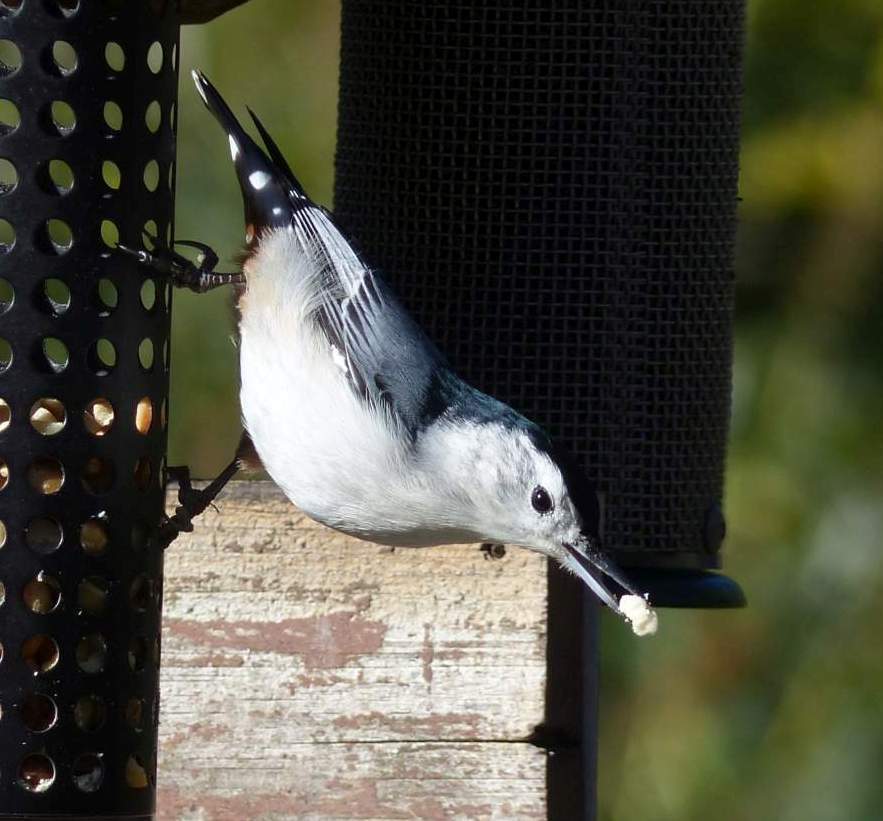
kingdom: Animalia
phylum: Chordata
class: Aves
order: Passeriformes
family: Sittidae
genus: Sitta
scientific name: Sitta carolinensis
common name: White-breasted nuthatch
